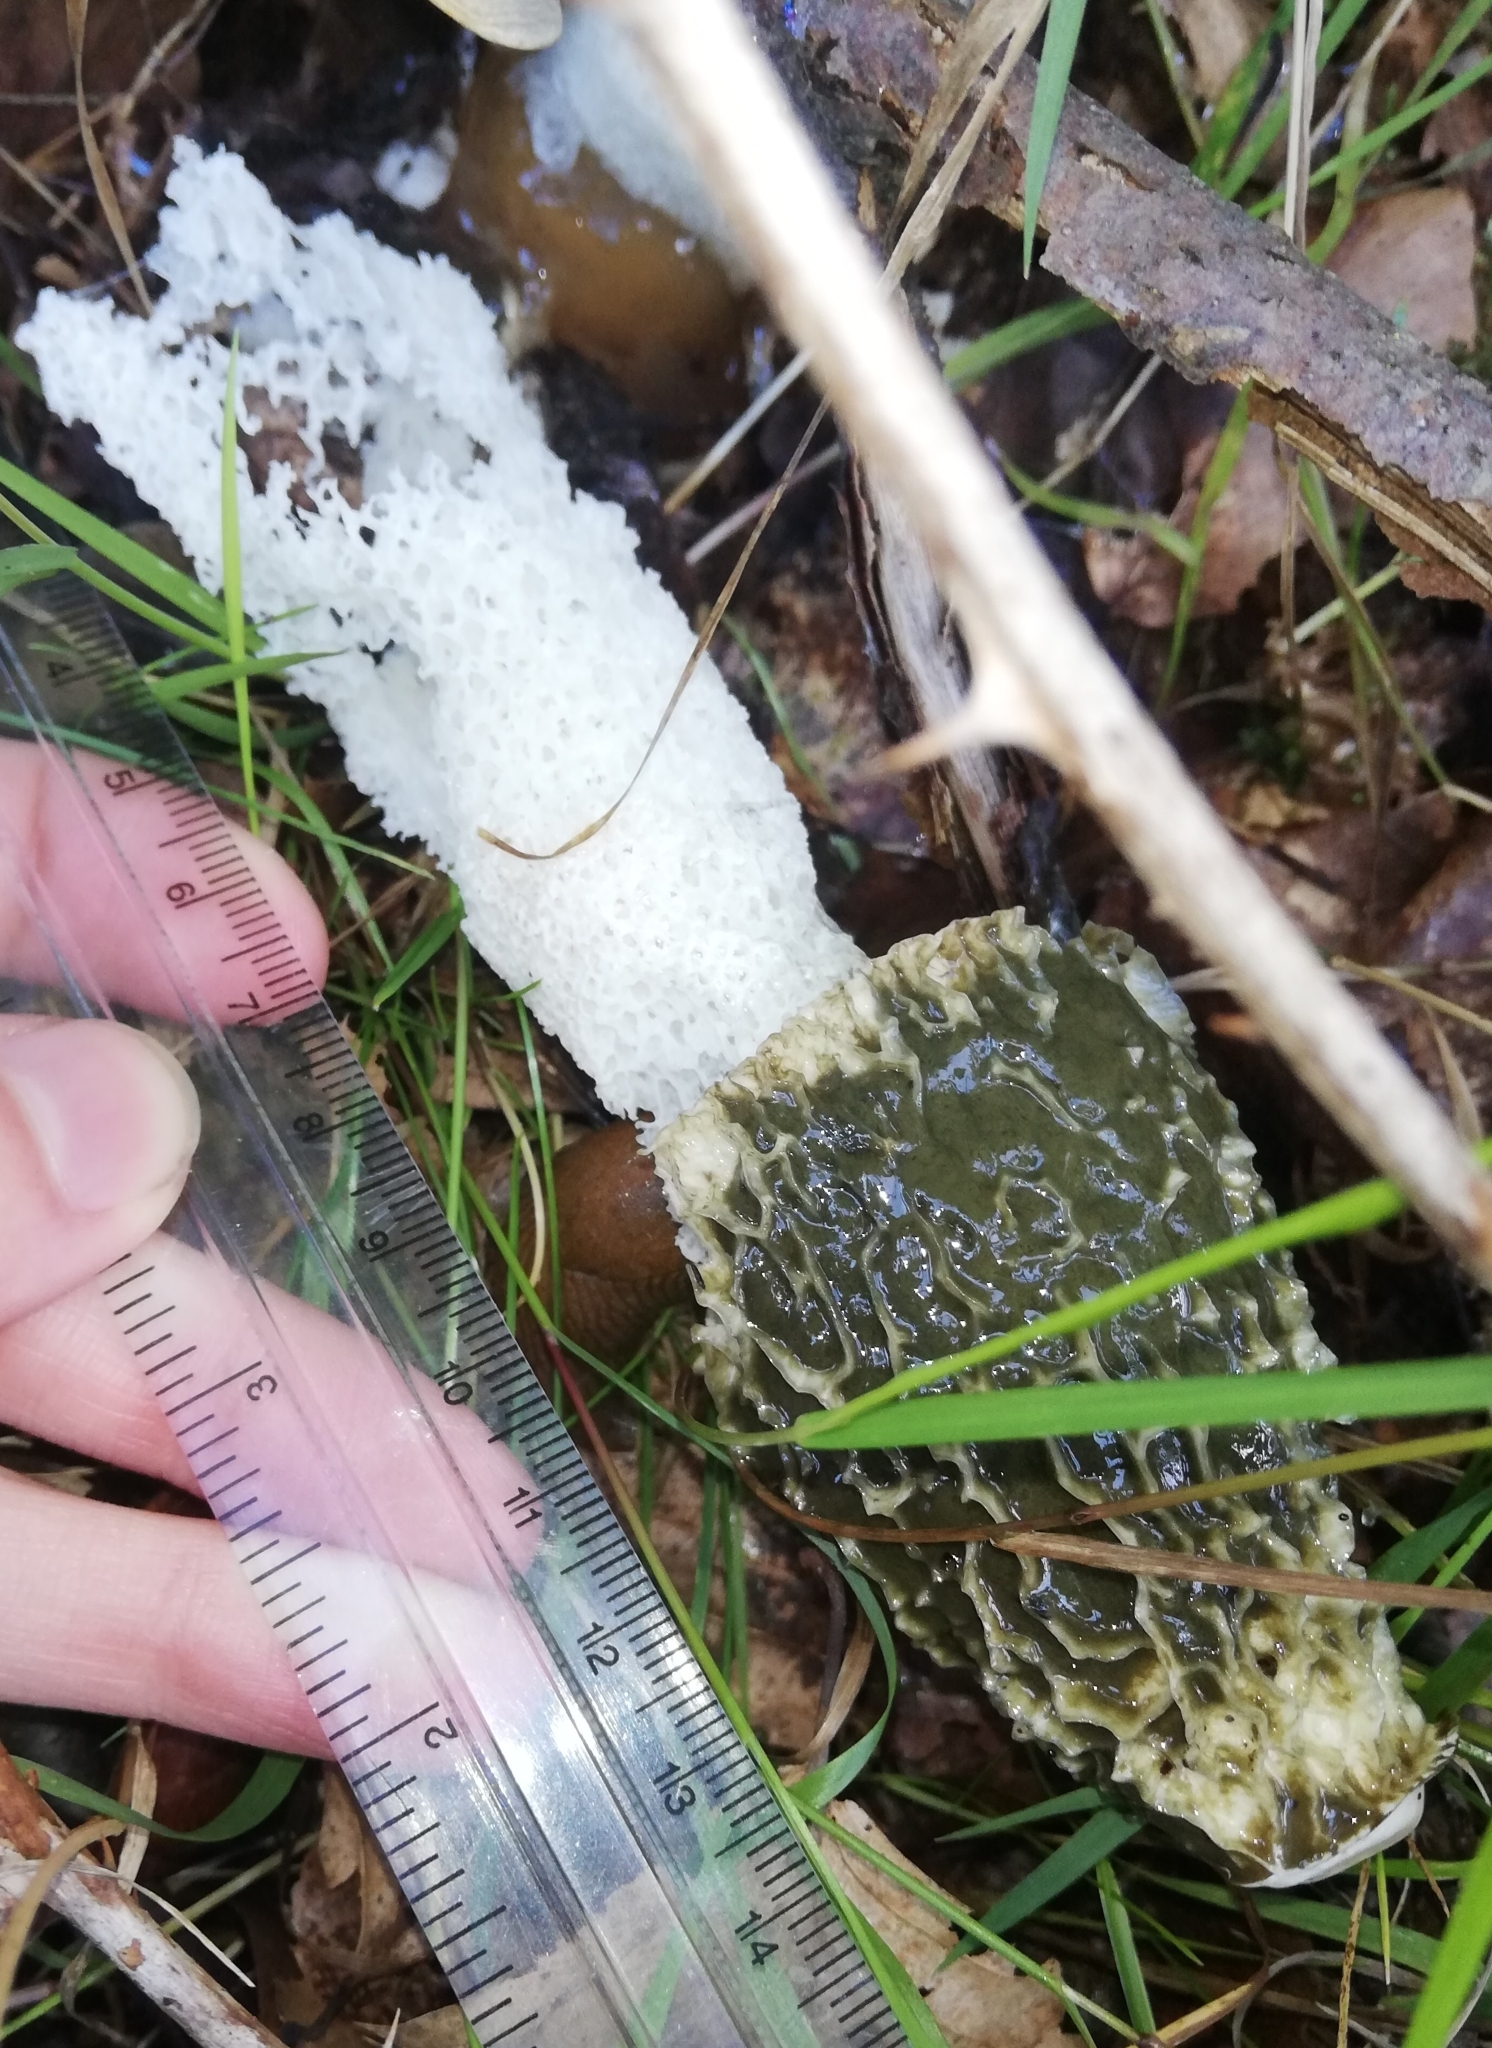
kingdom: Fungi
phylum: Basidiomycota
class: Agaricomycetes
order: Phallales
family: Phallaceae
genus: Phallus
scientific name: Phallus impudicus
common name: Common stinkhorn
